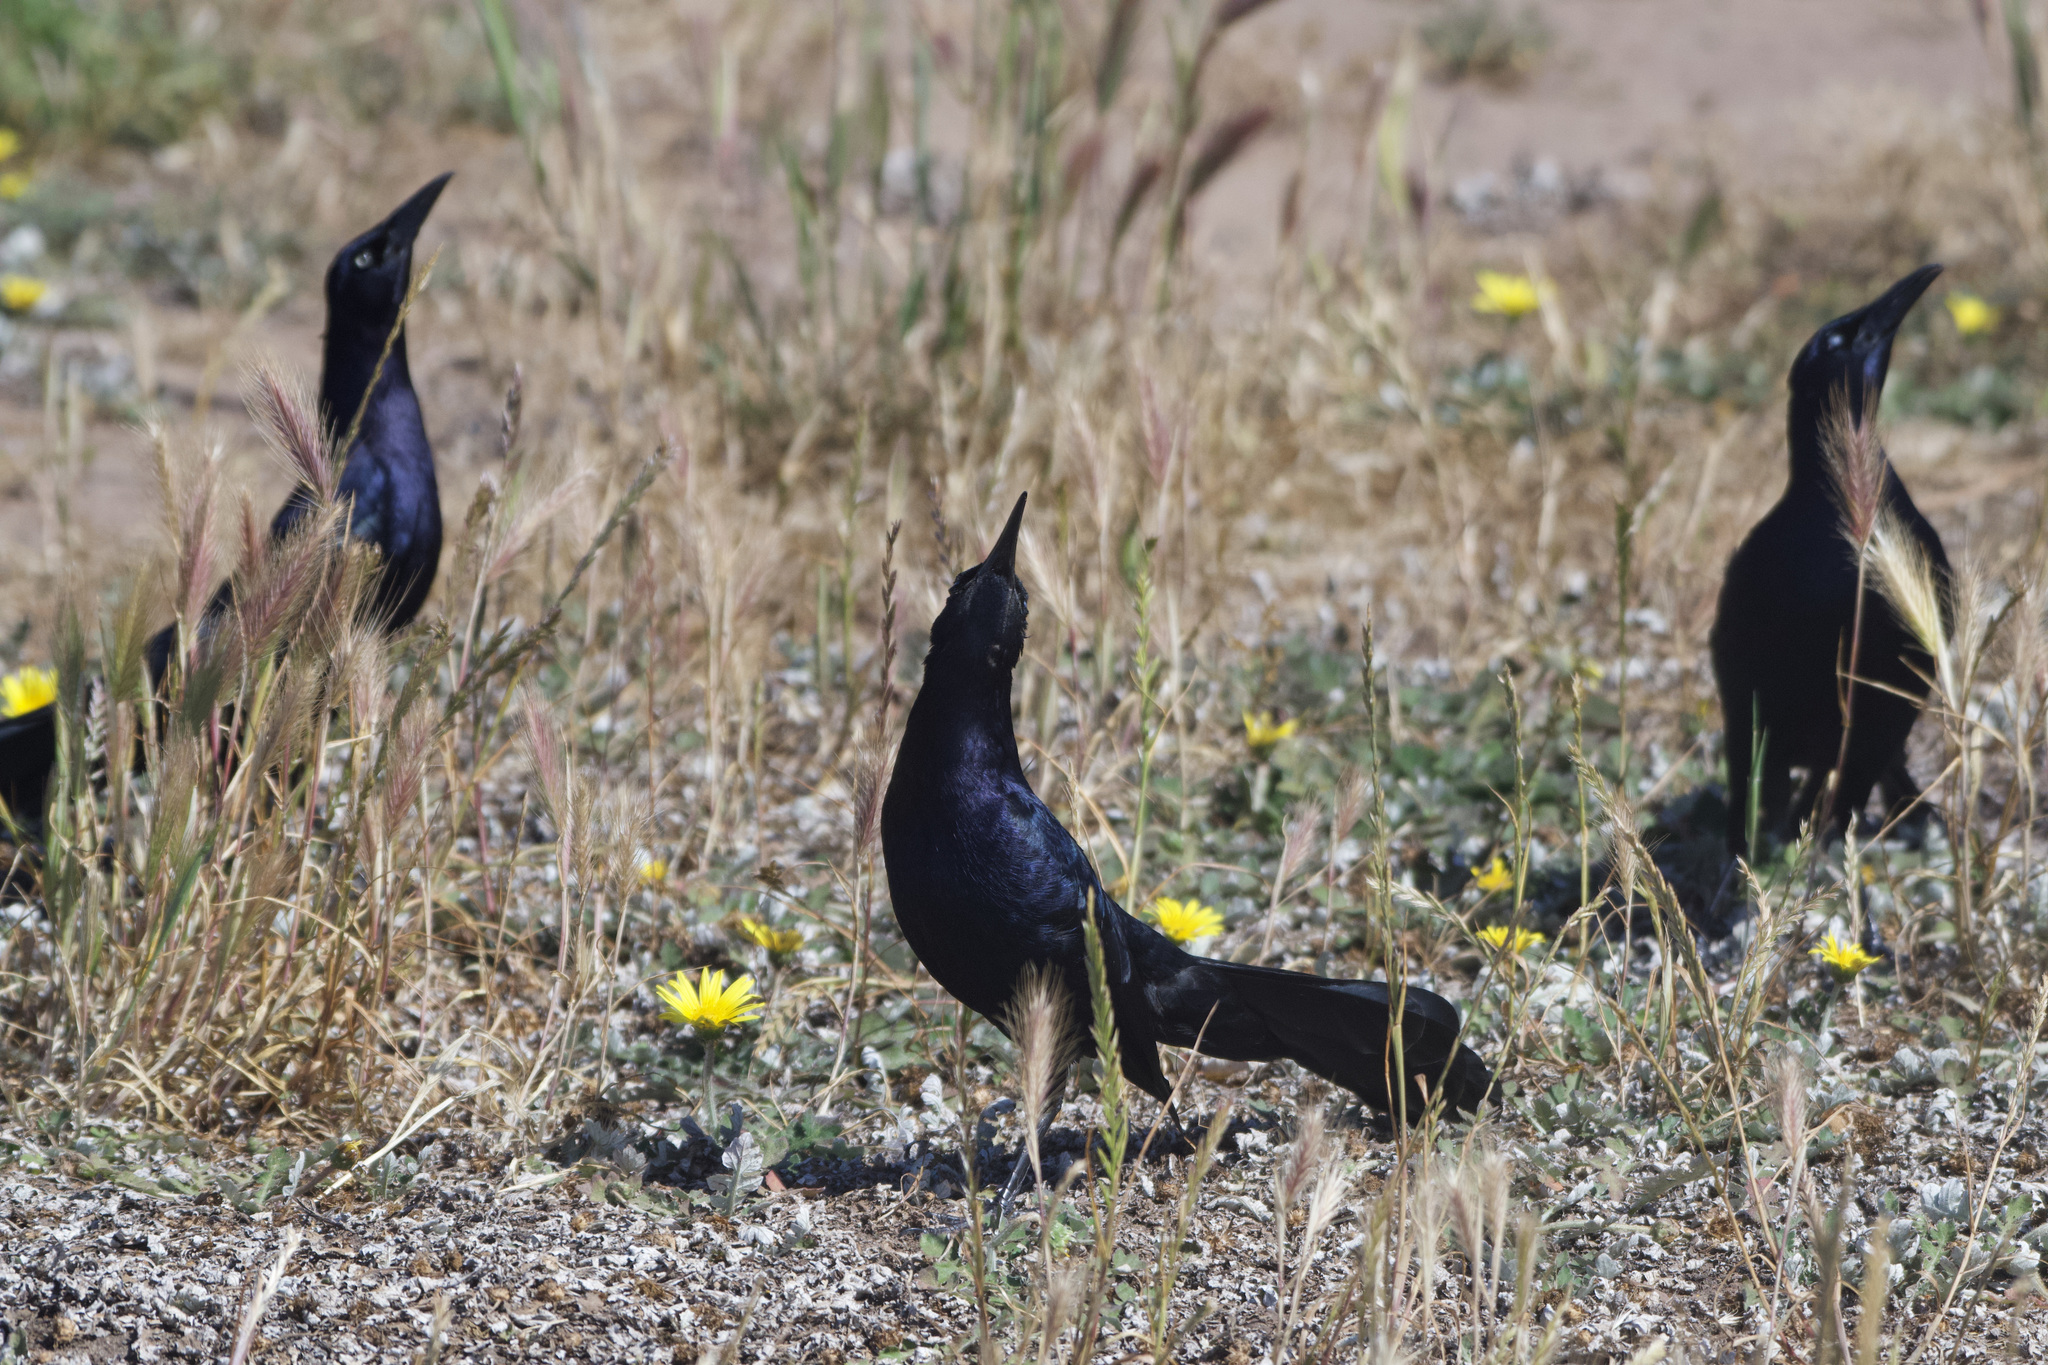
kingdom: Animalia
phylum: Chordata
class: Aves
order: Passeriformes
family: Icteridae
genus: Quiscalus
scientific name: Quiscalus mexicanus
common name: Great-tailed grackle
